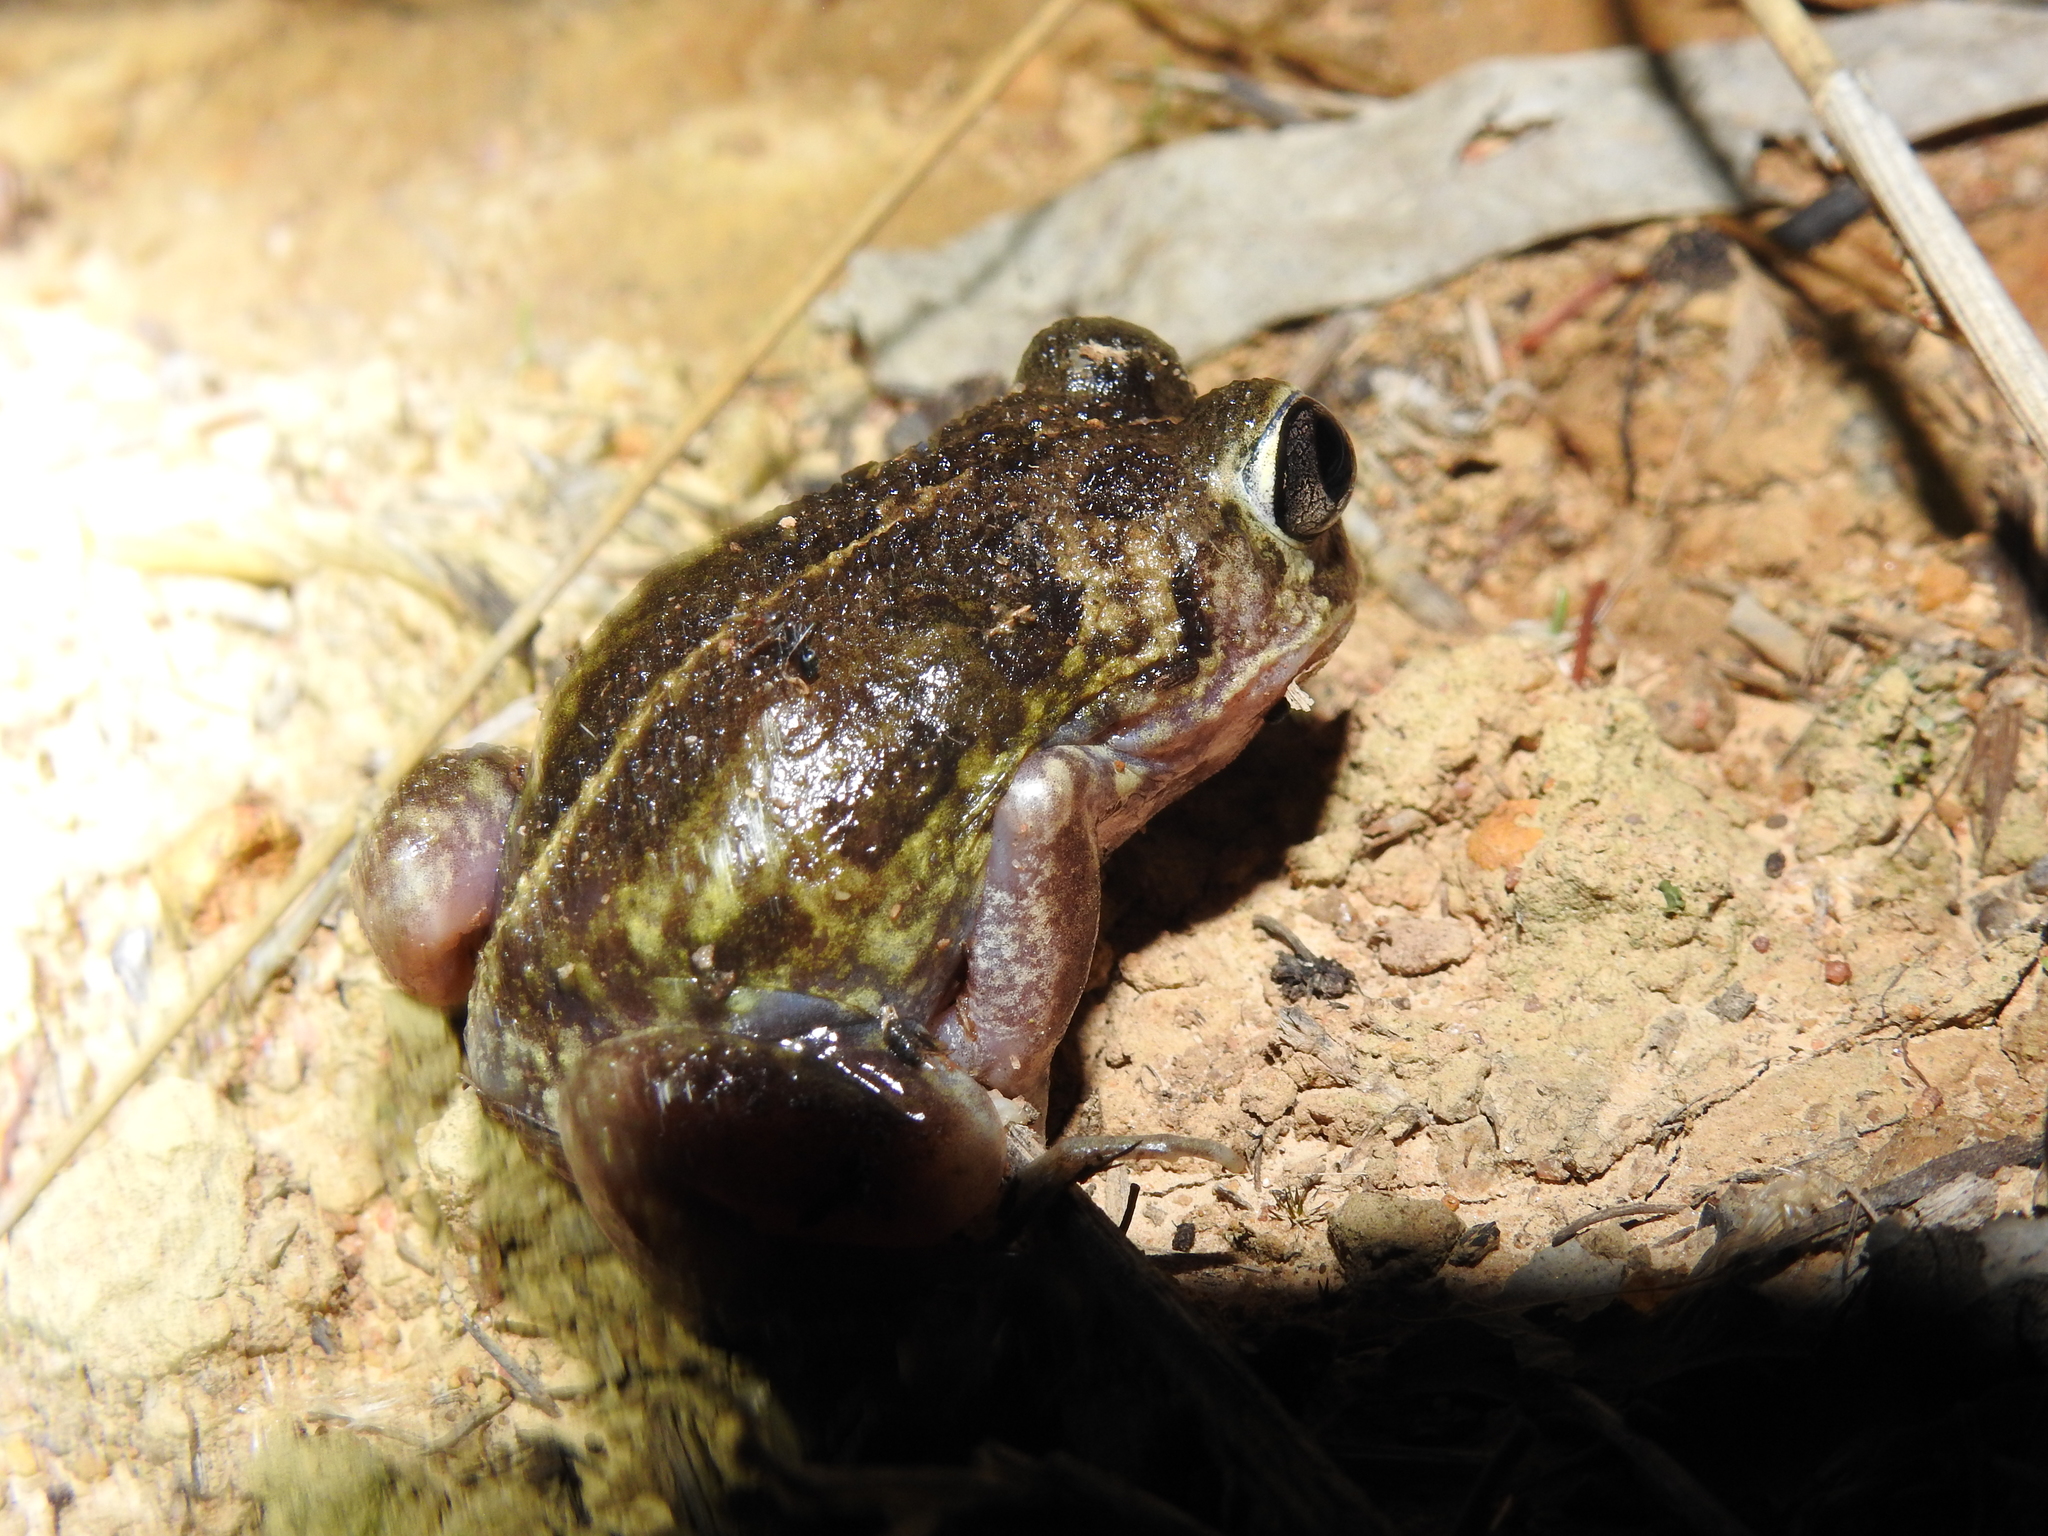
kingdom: Animalia
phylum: Chordata
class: Amphibia
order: Anura
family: Limnodynastidae
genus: Neobatrachus
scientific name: Neobatrachus sudelli
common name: Common spadefoot toad
